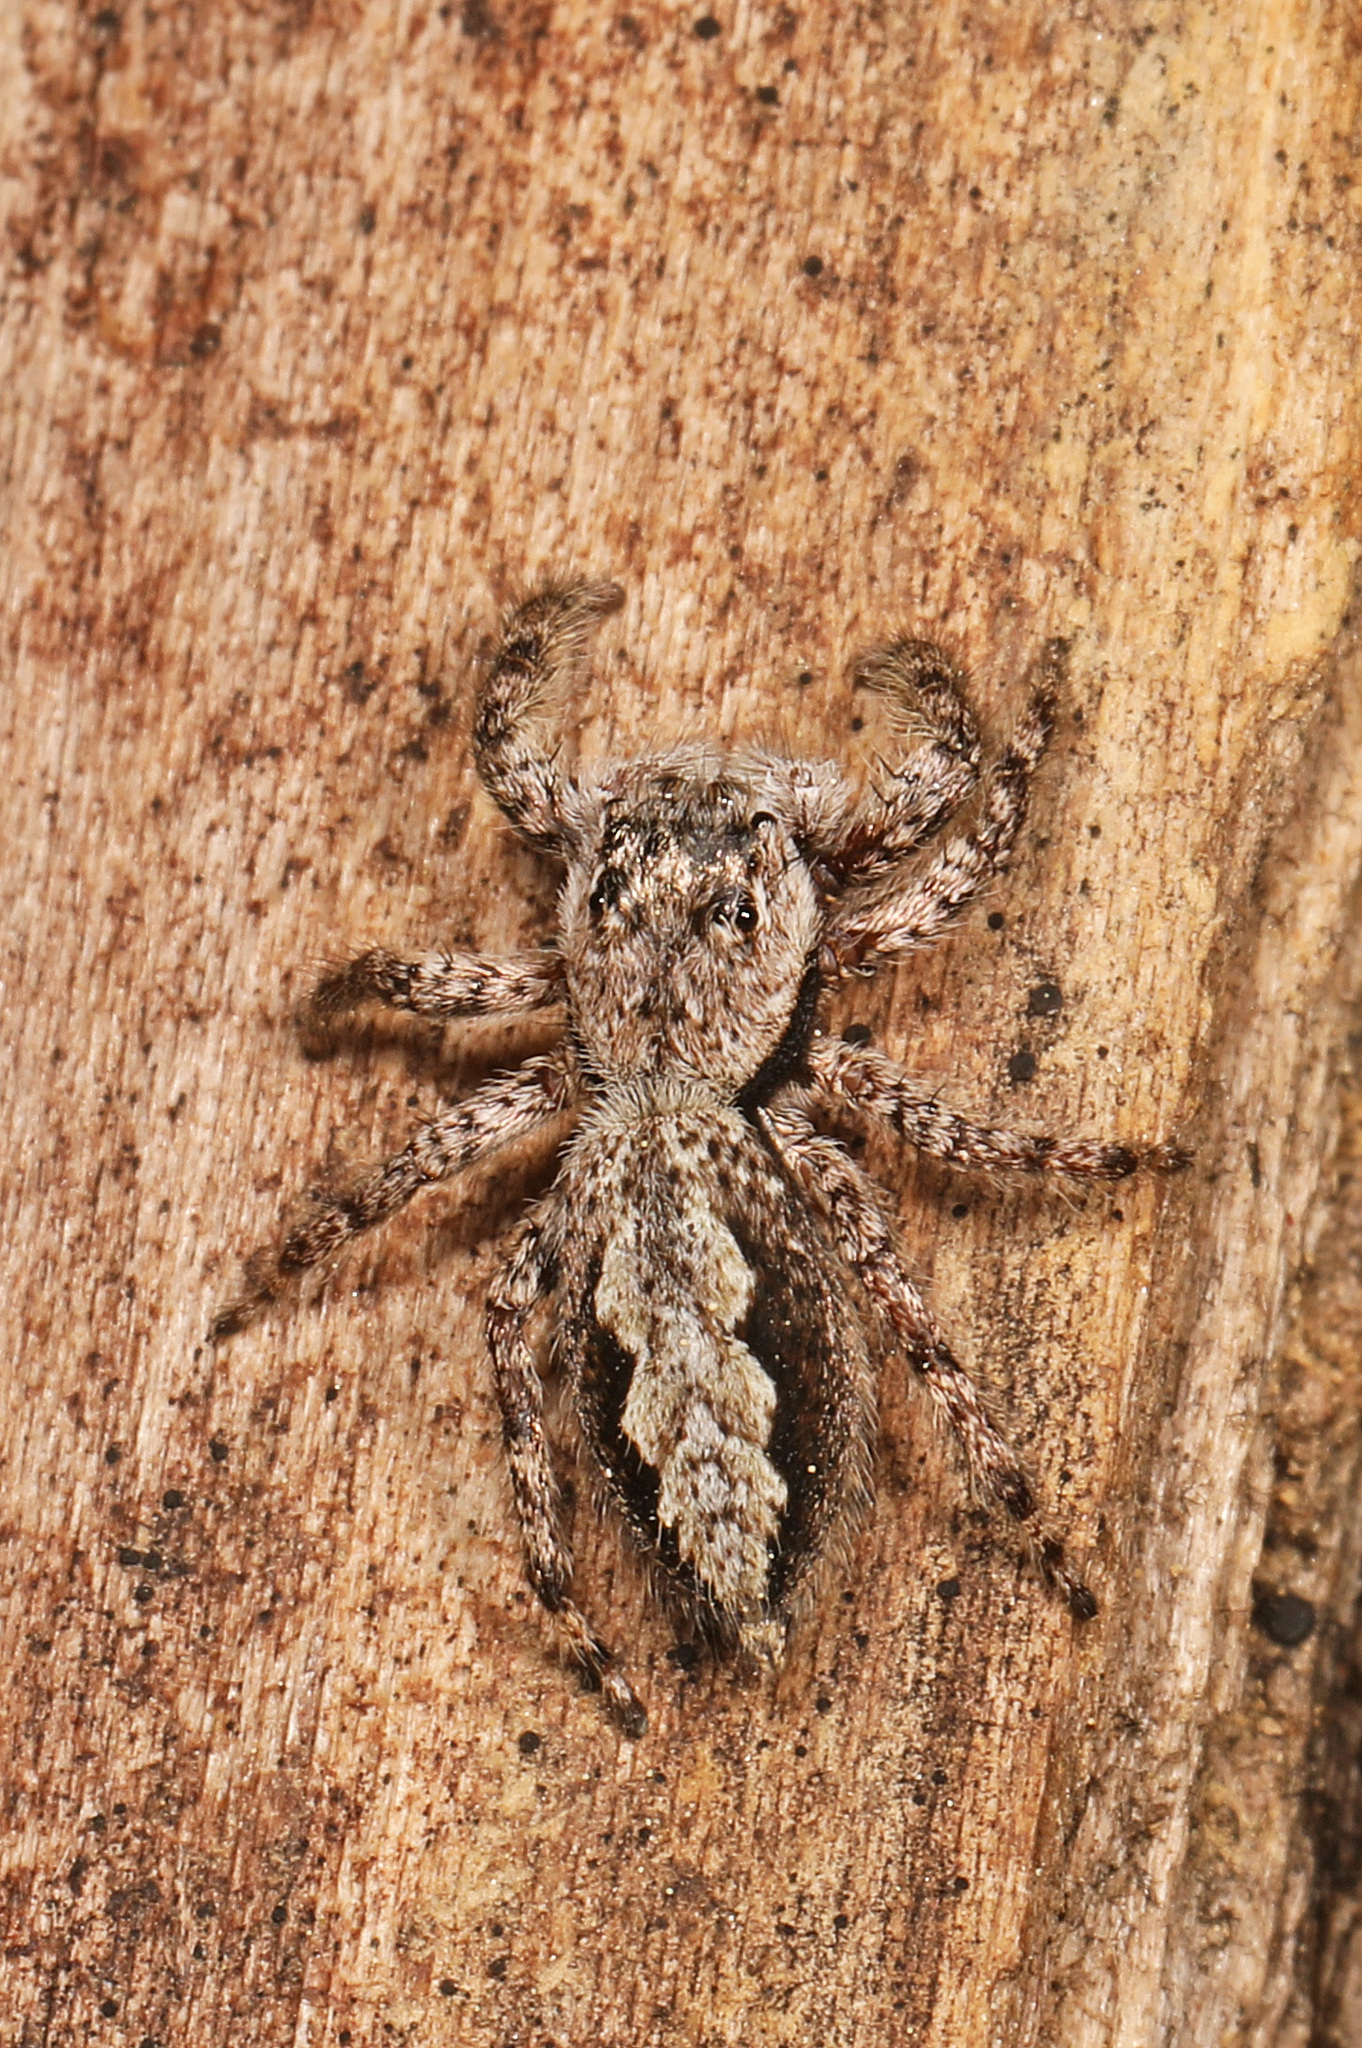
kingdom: Animalia
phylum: Arthropoda
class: Arachnida
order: Araneae
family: Salticidae
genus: Platycryptus
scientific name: Platycryptus undatus
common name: Tan jumping spider
